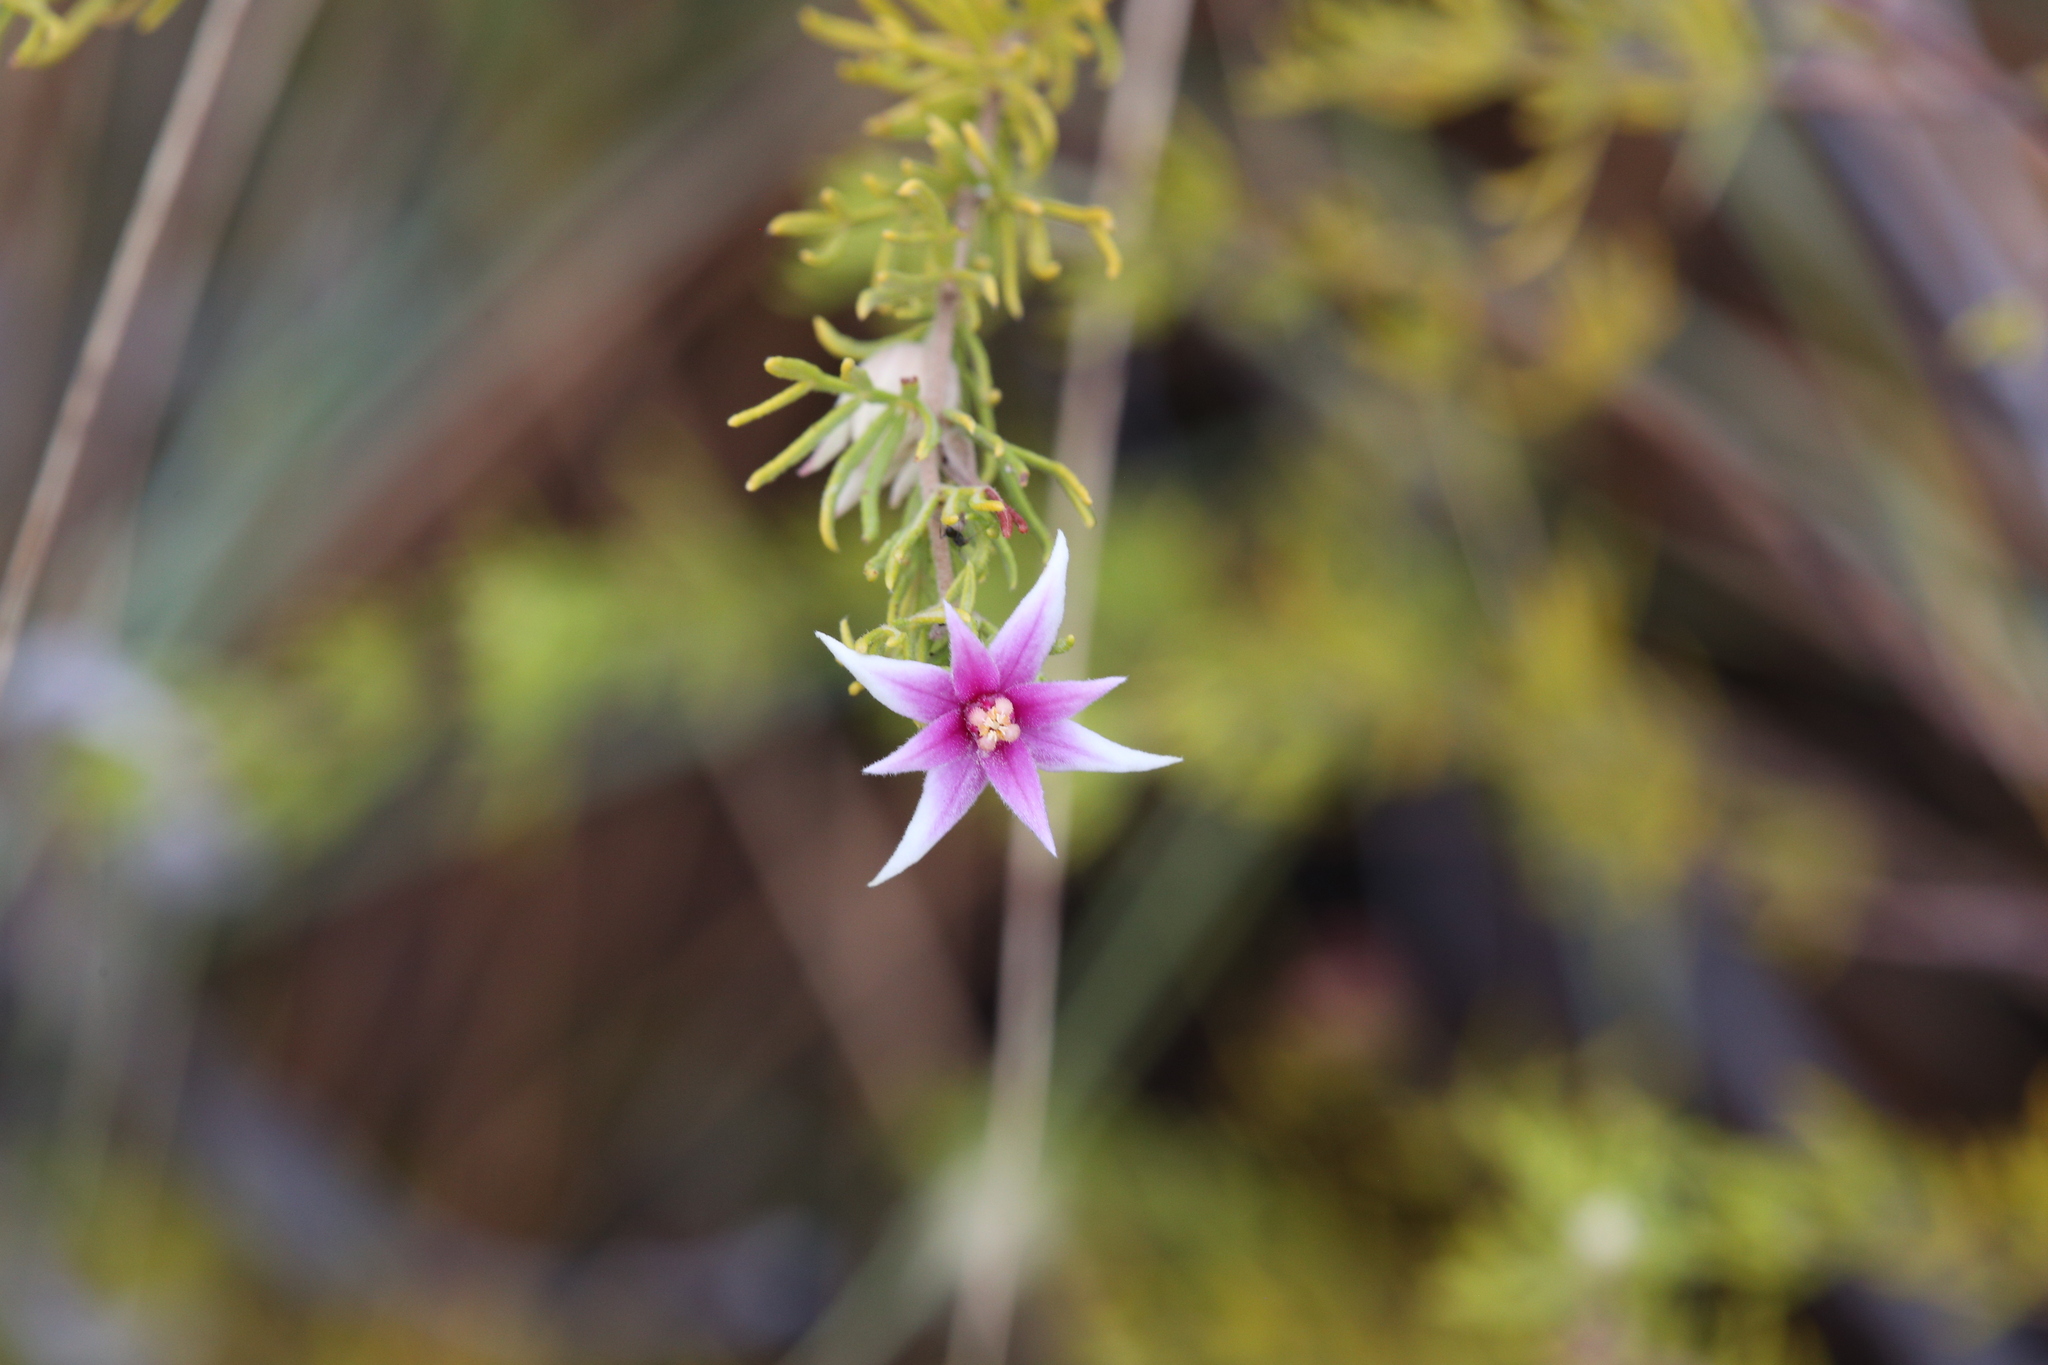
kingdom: Plantae
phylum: Tracheophyta
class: Magnoliopsida
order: Sapindales
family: Rutaceae
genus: Boronia
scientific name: Boronia lanuginosa
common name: Red boronia
